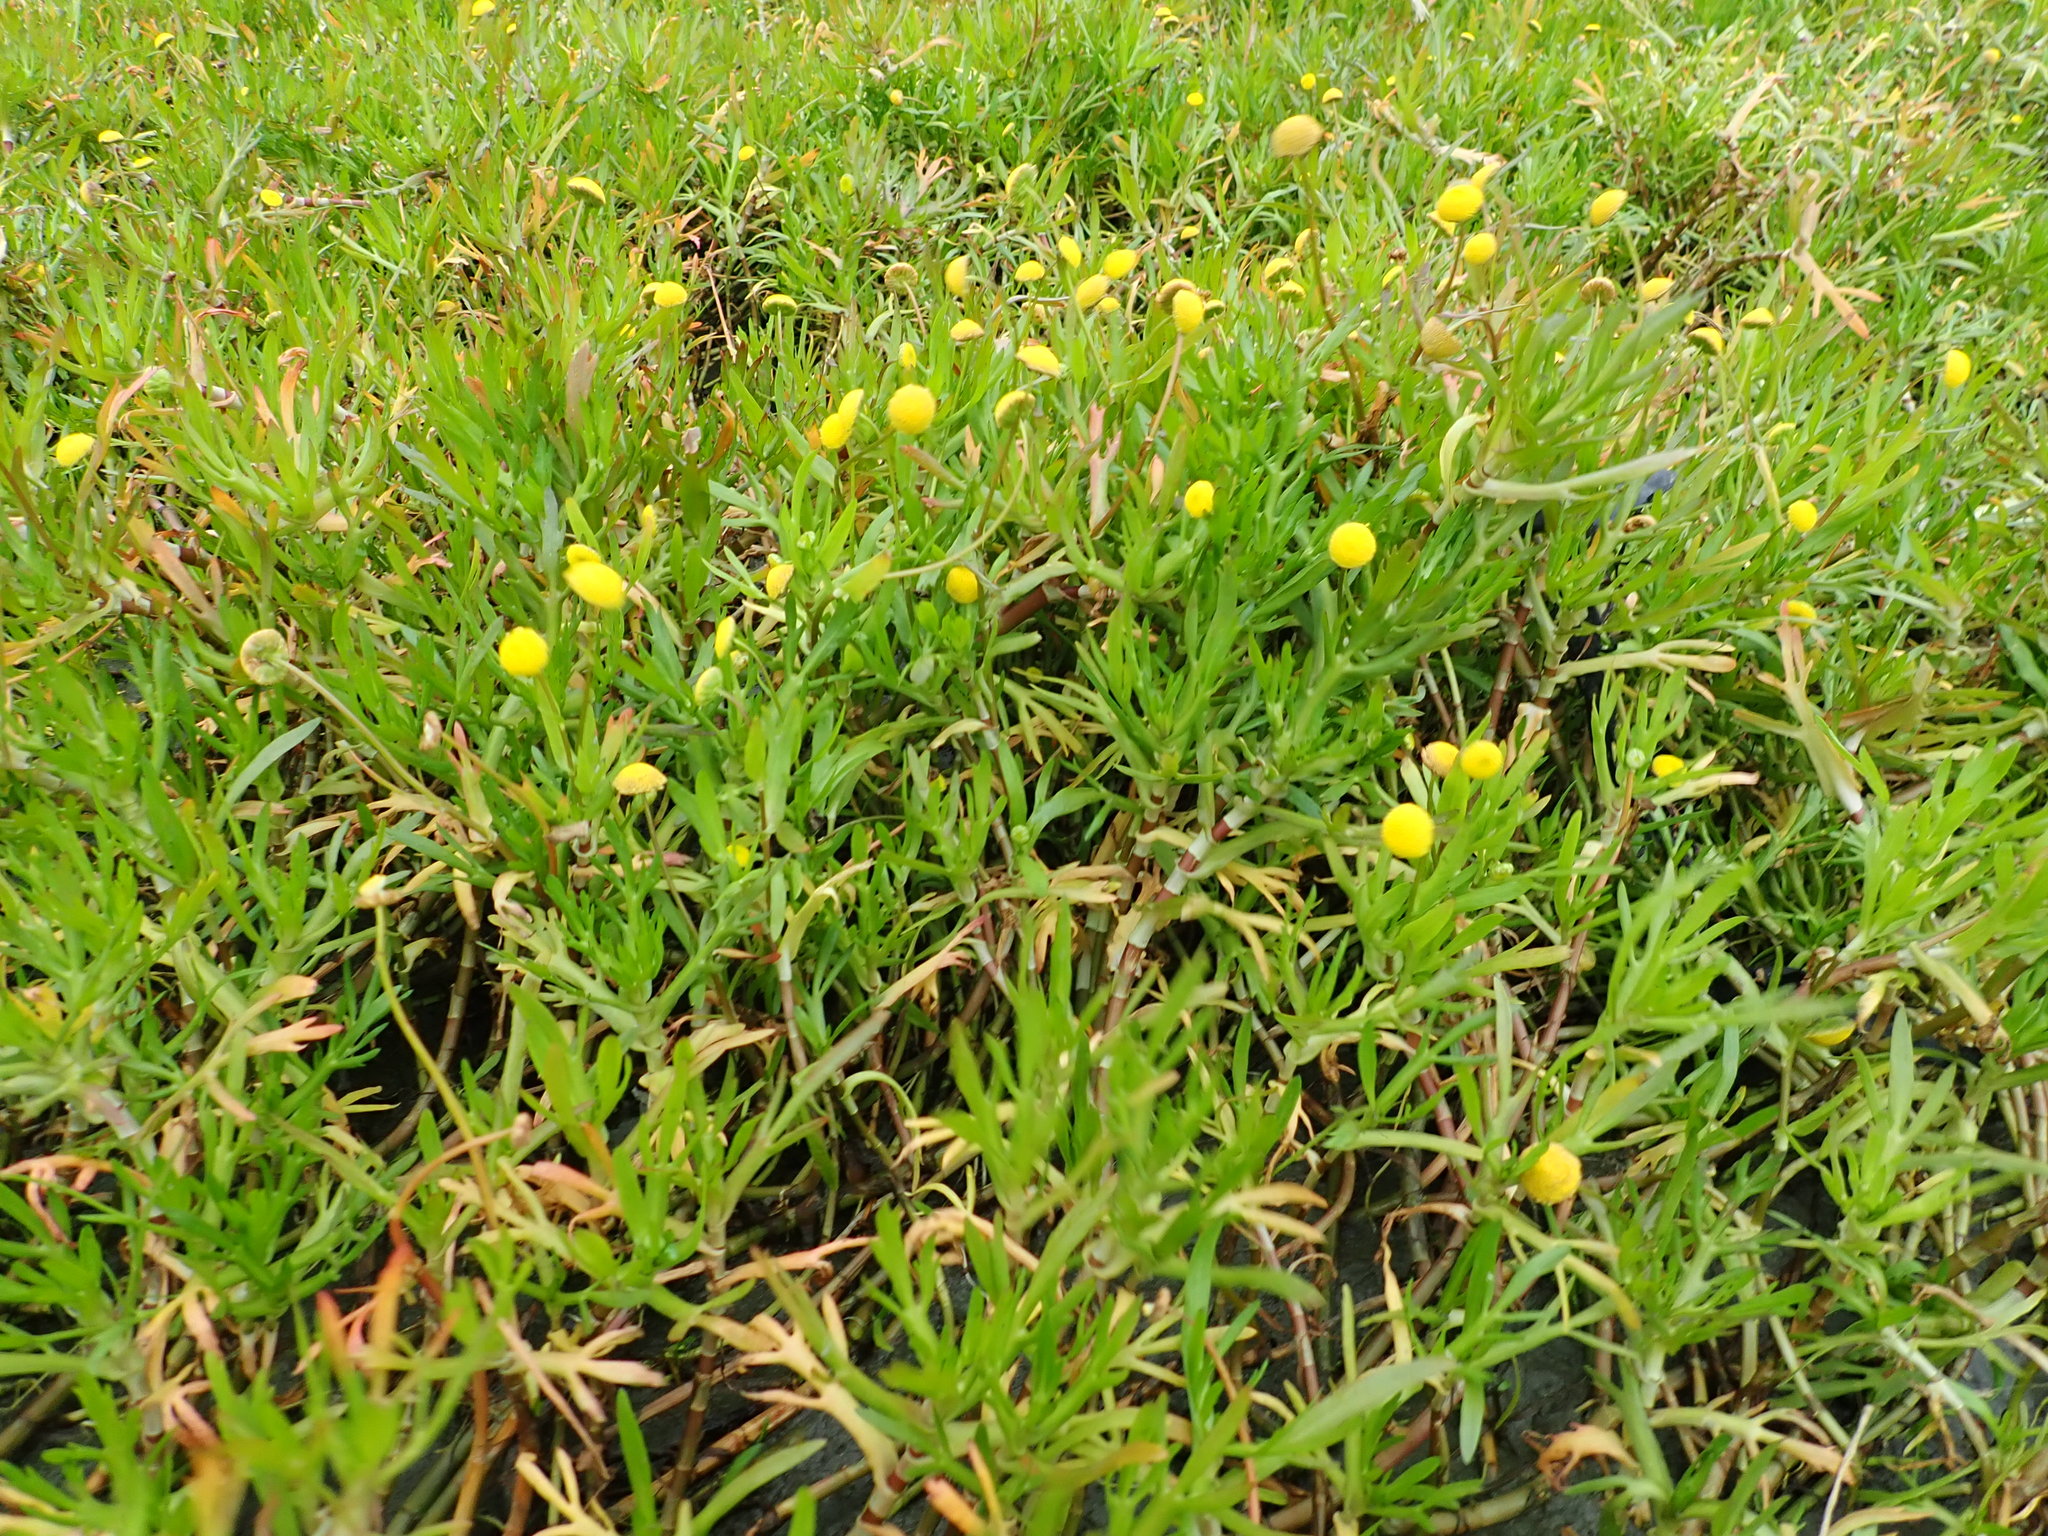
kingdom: Plantae
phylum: Tracheophyta
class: Magnoliopsida
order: Asterales
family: Asteraceae
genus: Cotula
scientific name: Cotula coronopifolia
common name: Buttonweed
